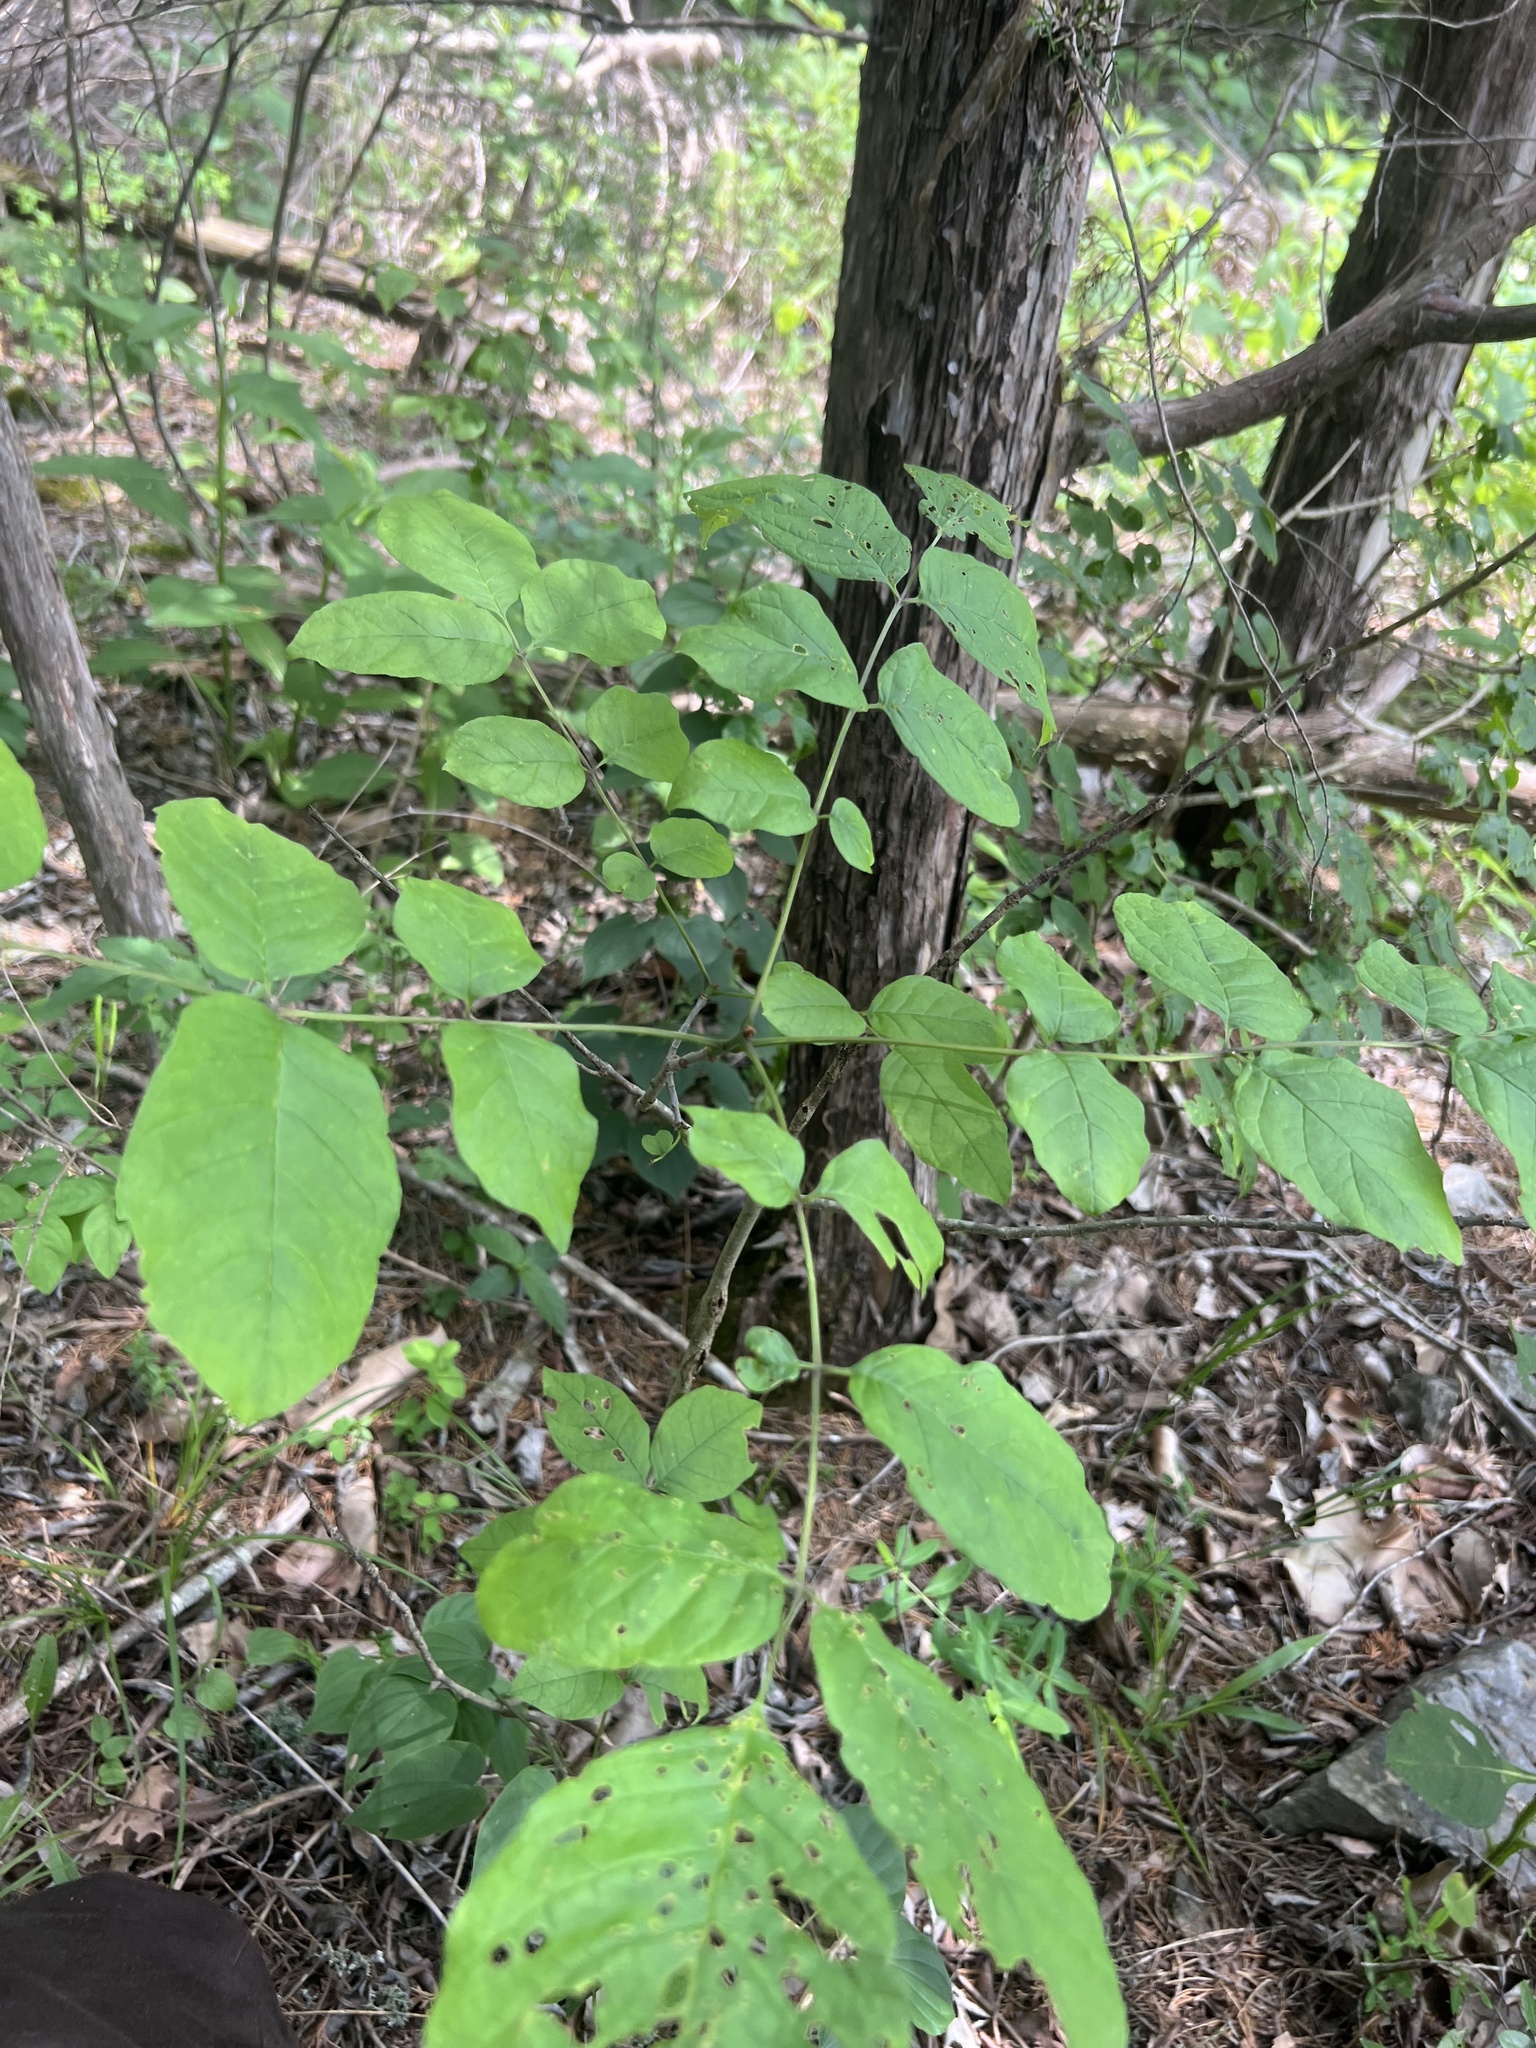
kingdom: Plantae
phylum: Tracheophyta
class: Magnoliopsida
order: Lamiales
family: Oleaceae
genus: Fraxinus
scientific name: Fraxinus americana
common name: White ash
